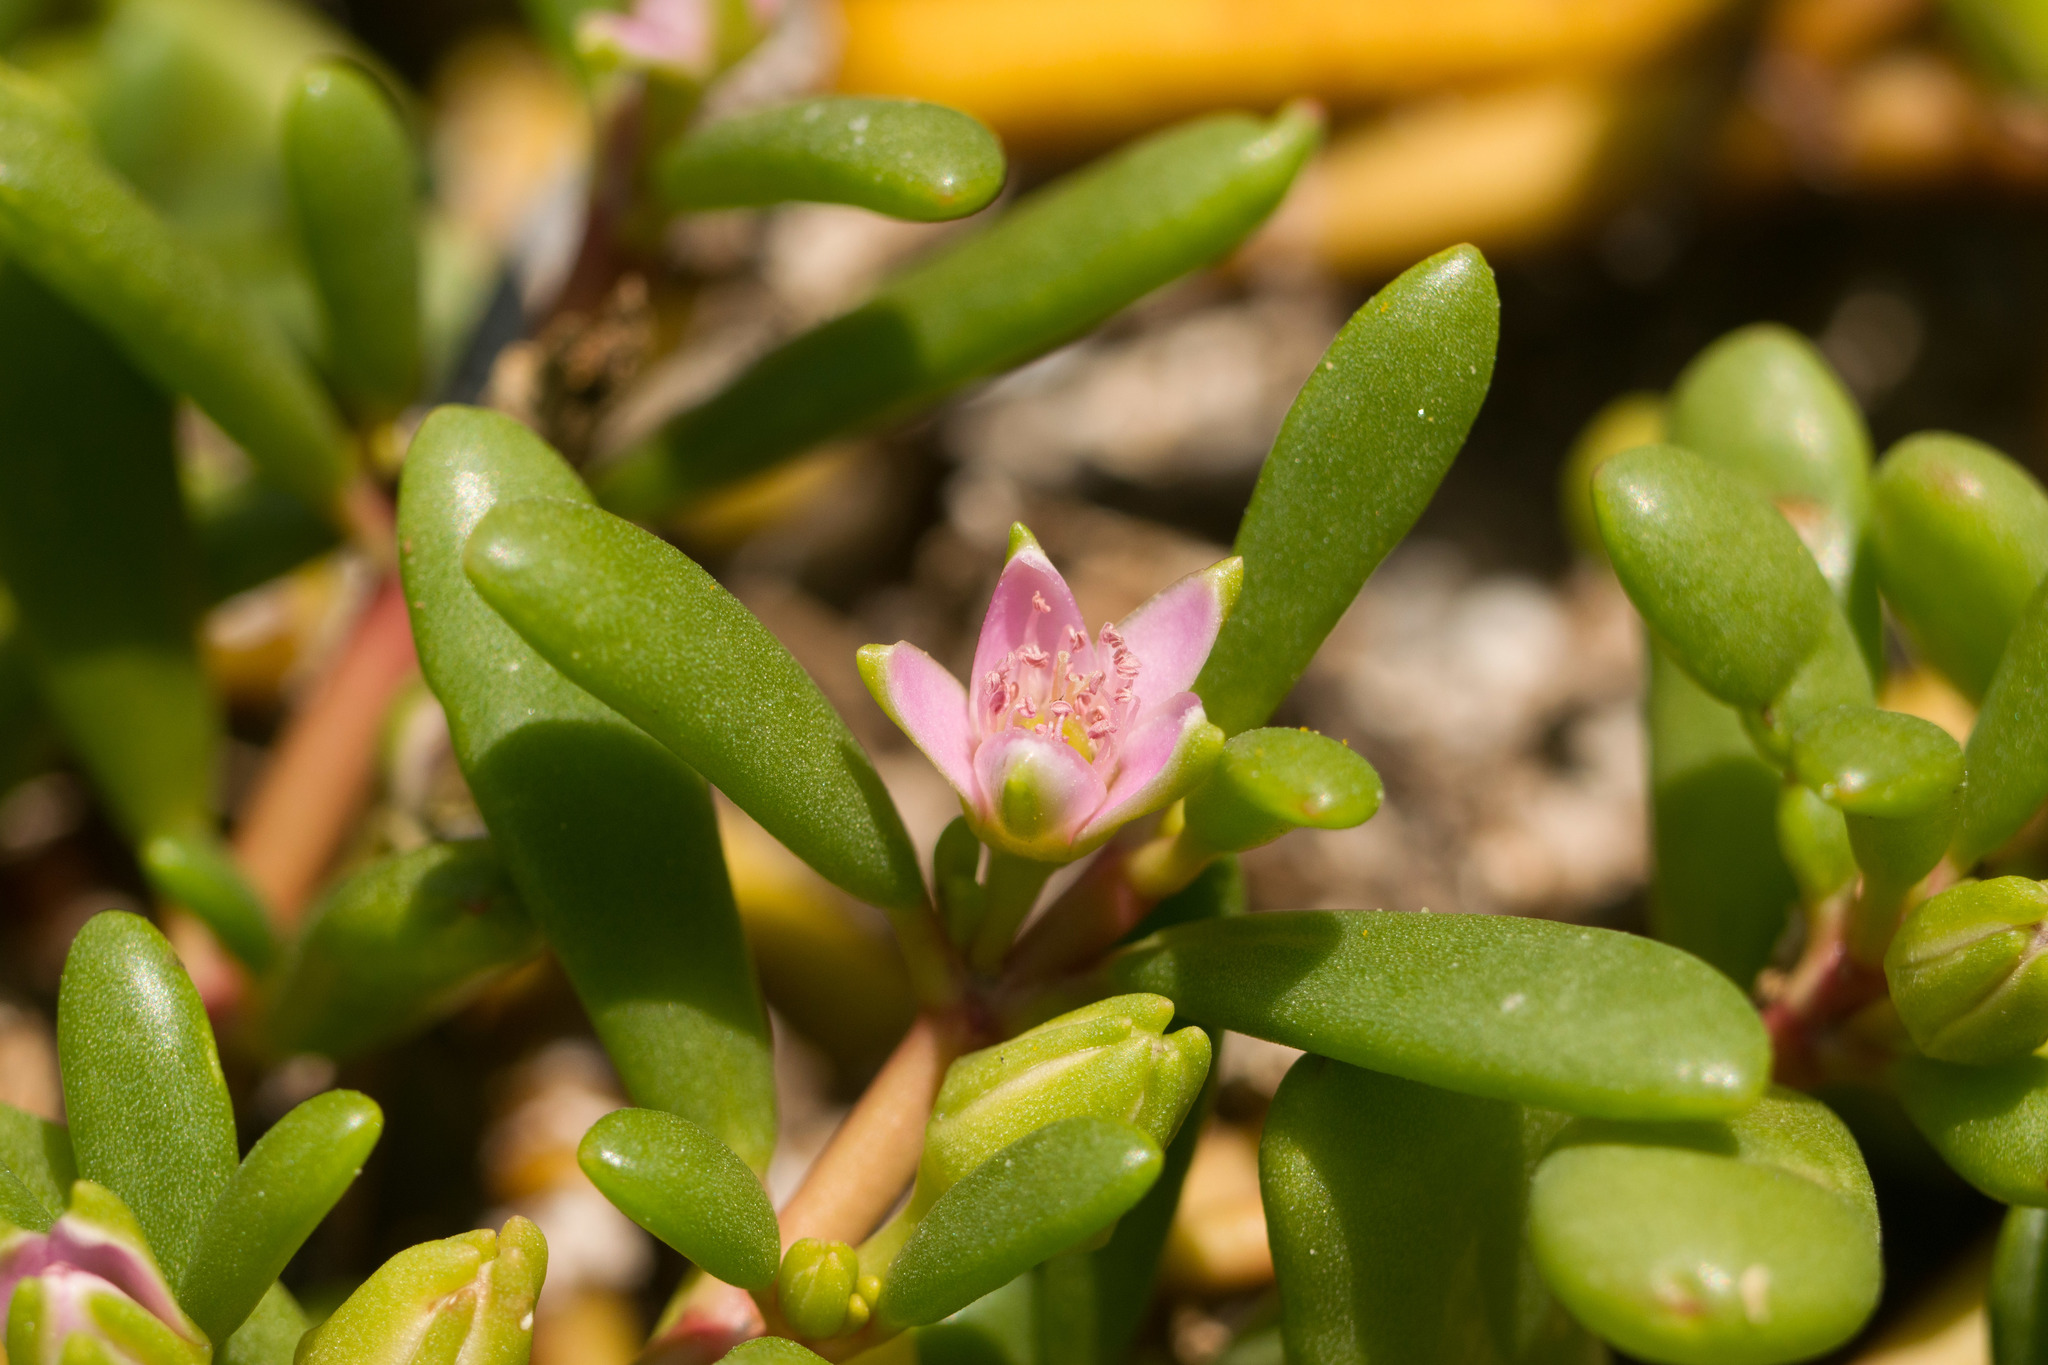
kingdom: Plantae
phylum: Tracheophyta
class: Magnoliopsida
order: Caryophyllales
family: Aizoaceae
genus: Sesuvium
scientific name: Sesuvium portulacastrum
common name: Sea-purslane
